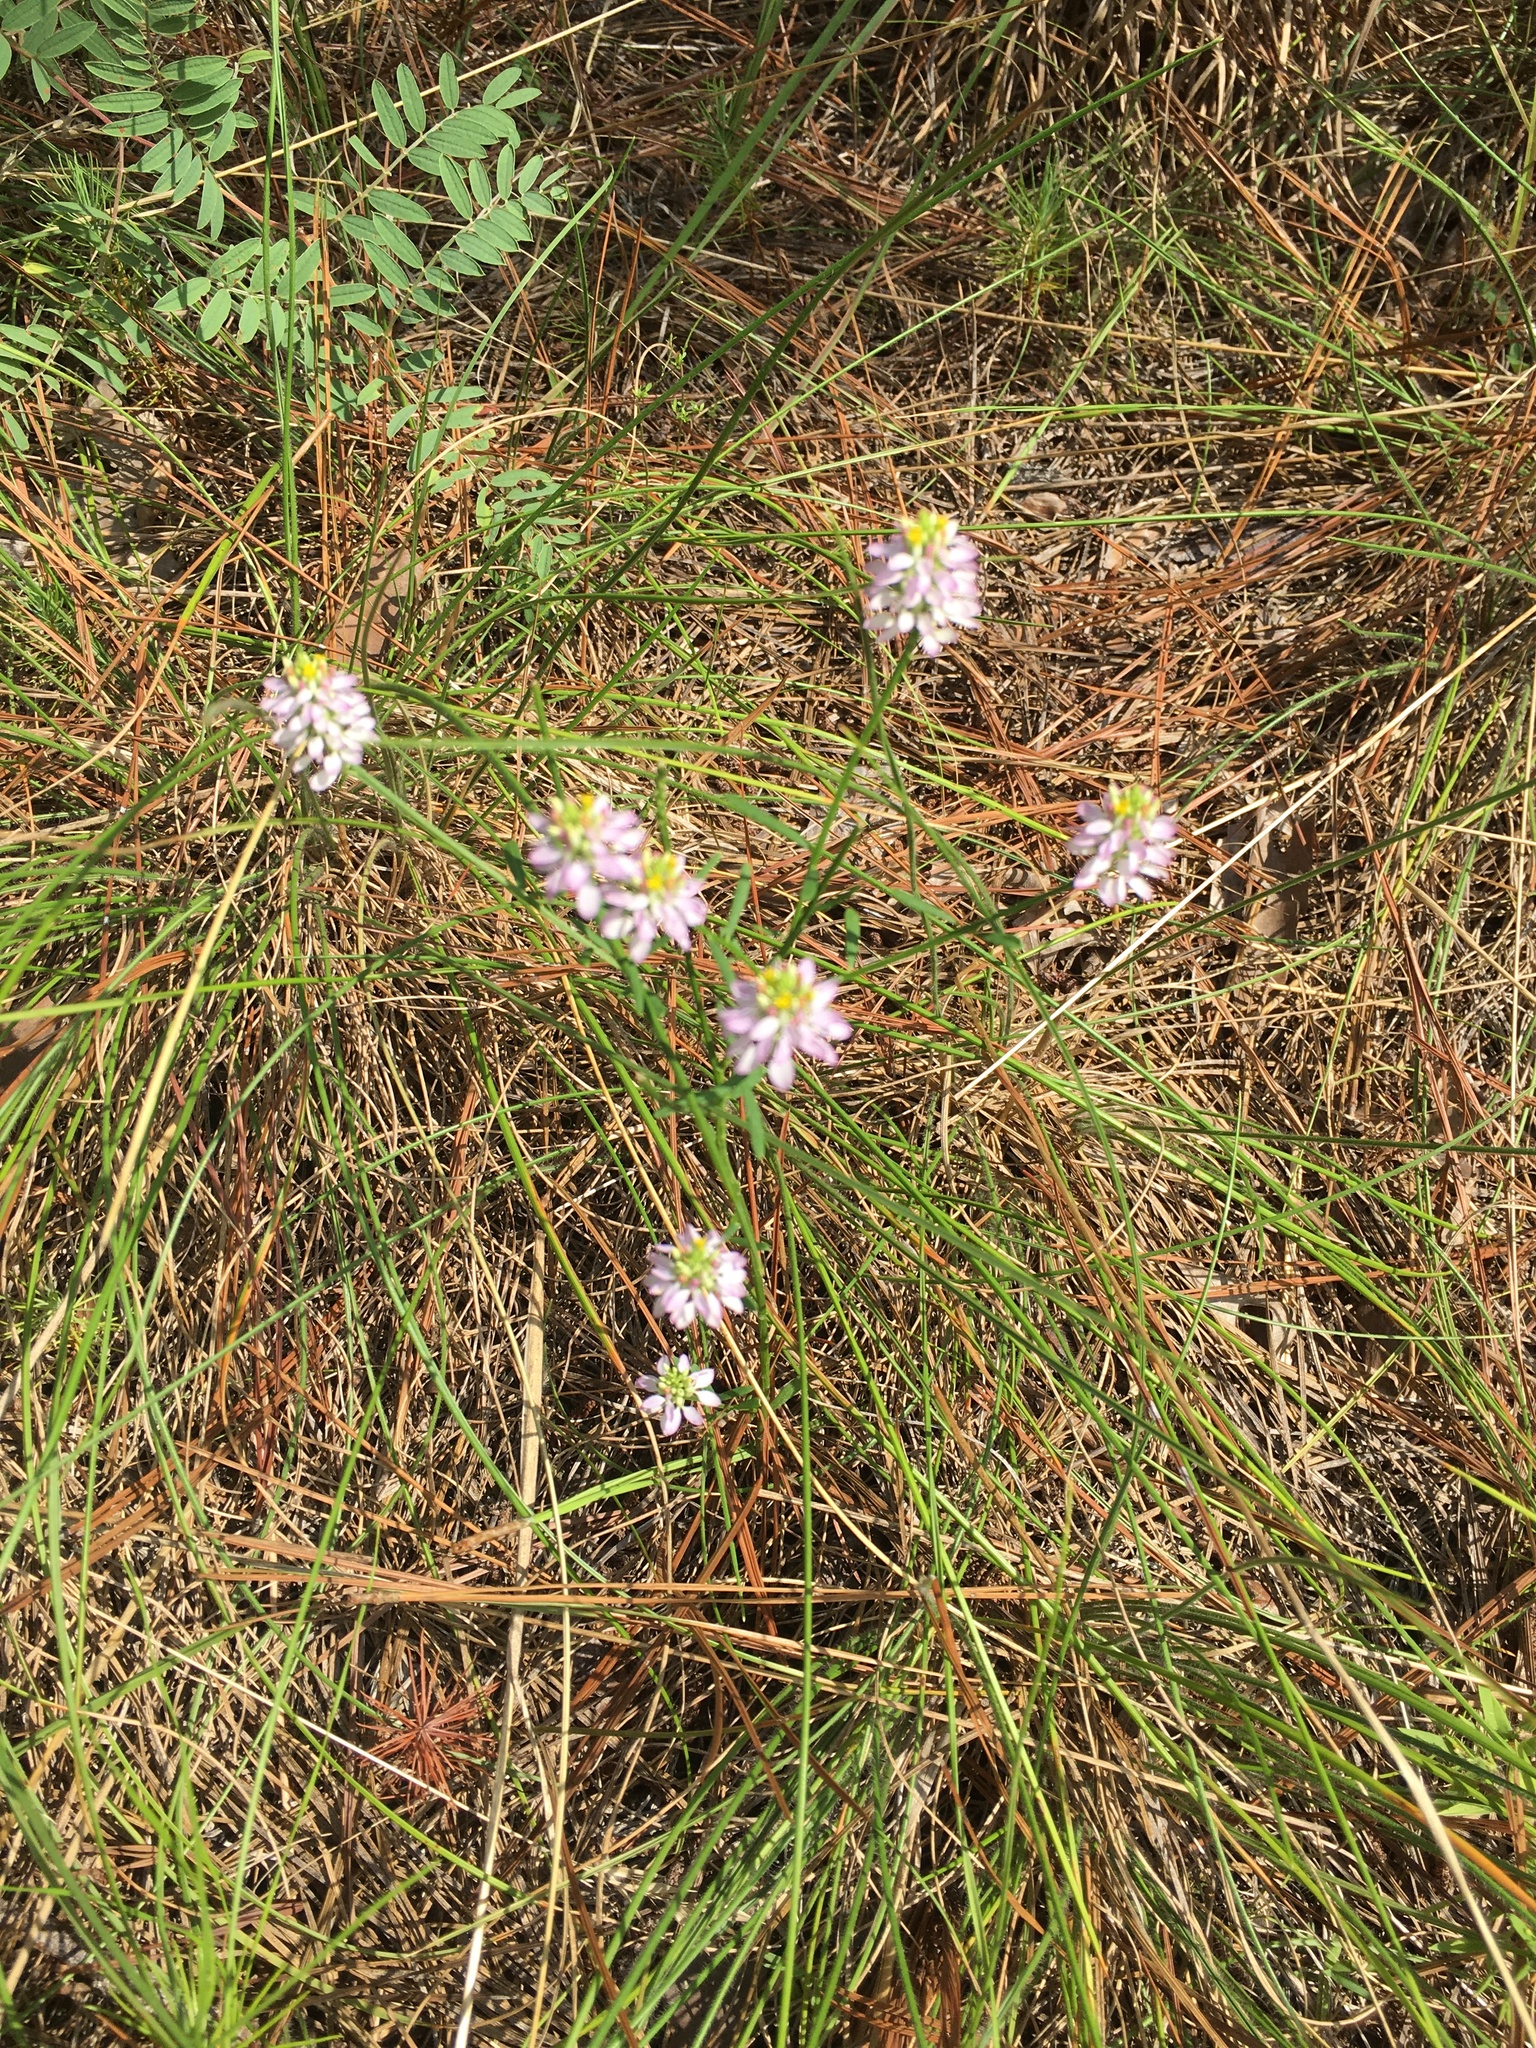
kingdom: Plantae
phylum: Tracheophyta
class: Magnoliopsida
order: Fabales
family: Polygalaceae
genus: Polygala
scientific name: Polygala curtissii
